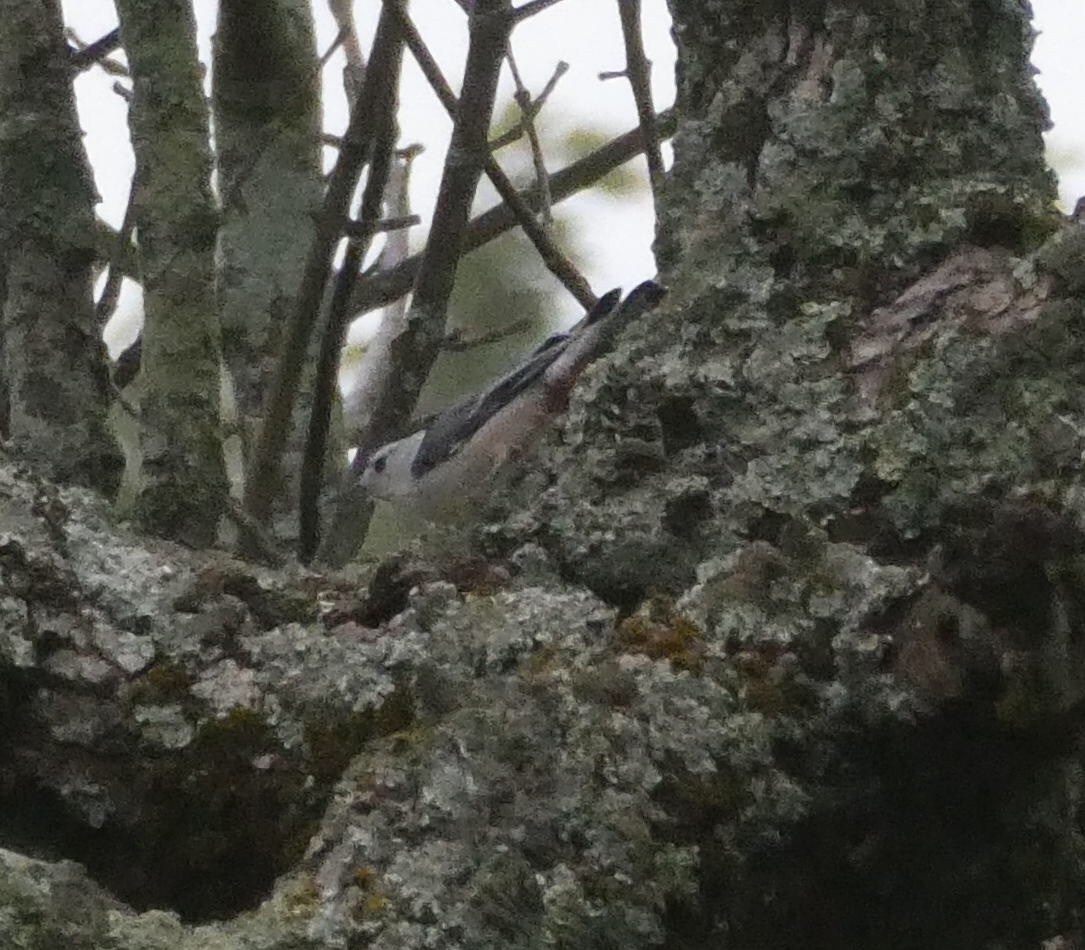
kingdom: Animalia
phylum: Chordata
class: Aves
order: Passeriformes
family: Sittidae
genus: Sitta
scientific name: Sitta carolinensis
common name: White-breasted nuthatch
